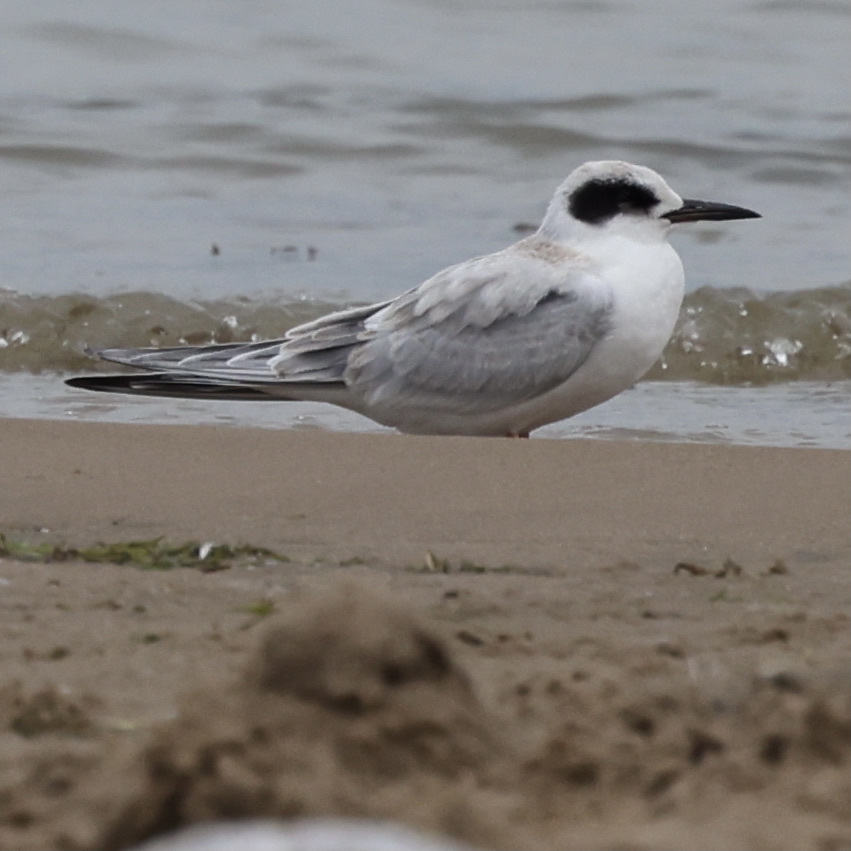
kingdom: Animalia
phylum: Chordata
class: Aves
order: Charadriiformes
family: Laridae
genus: Sterna
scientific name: Sterna forsteri
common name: Forster's tern
